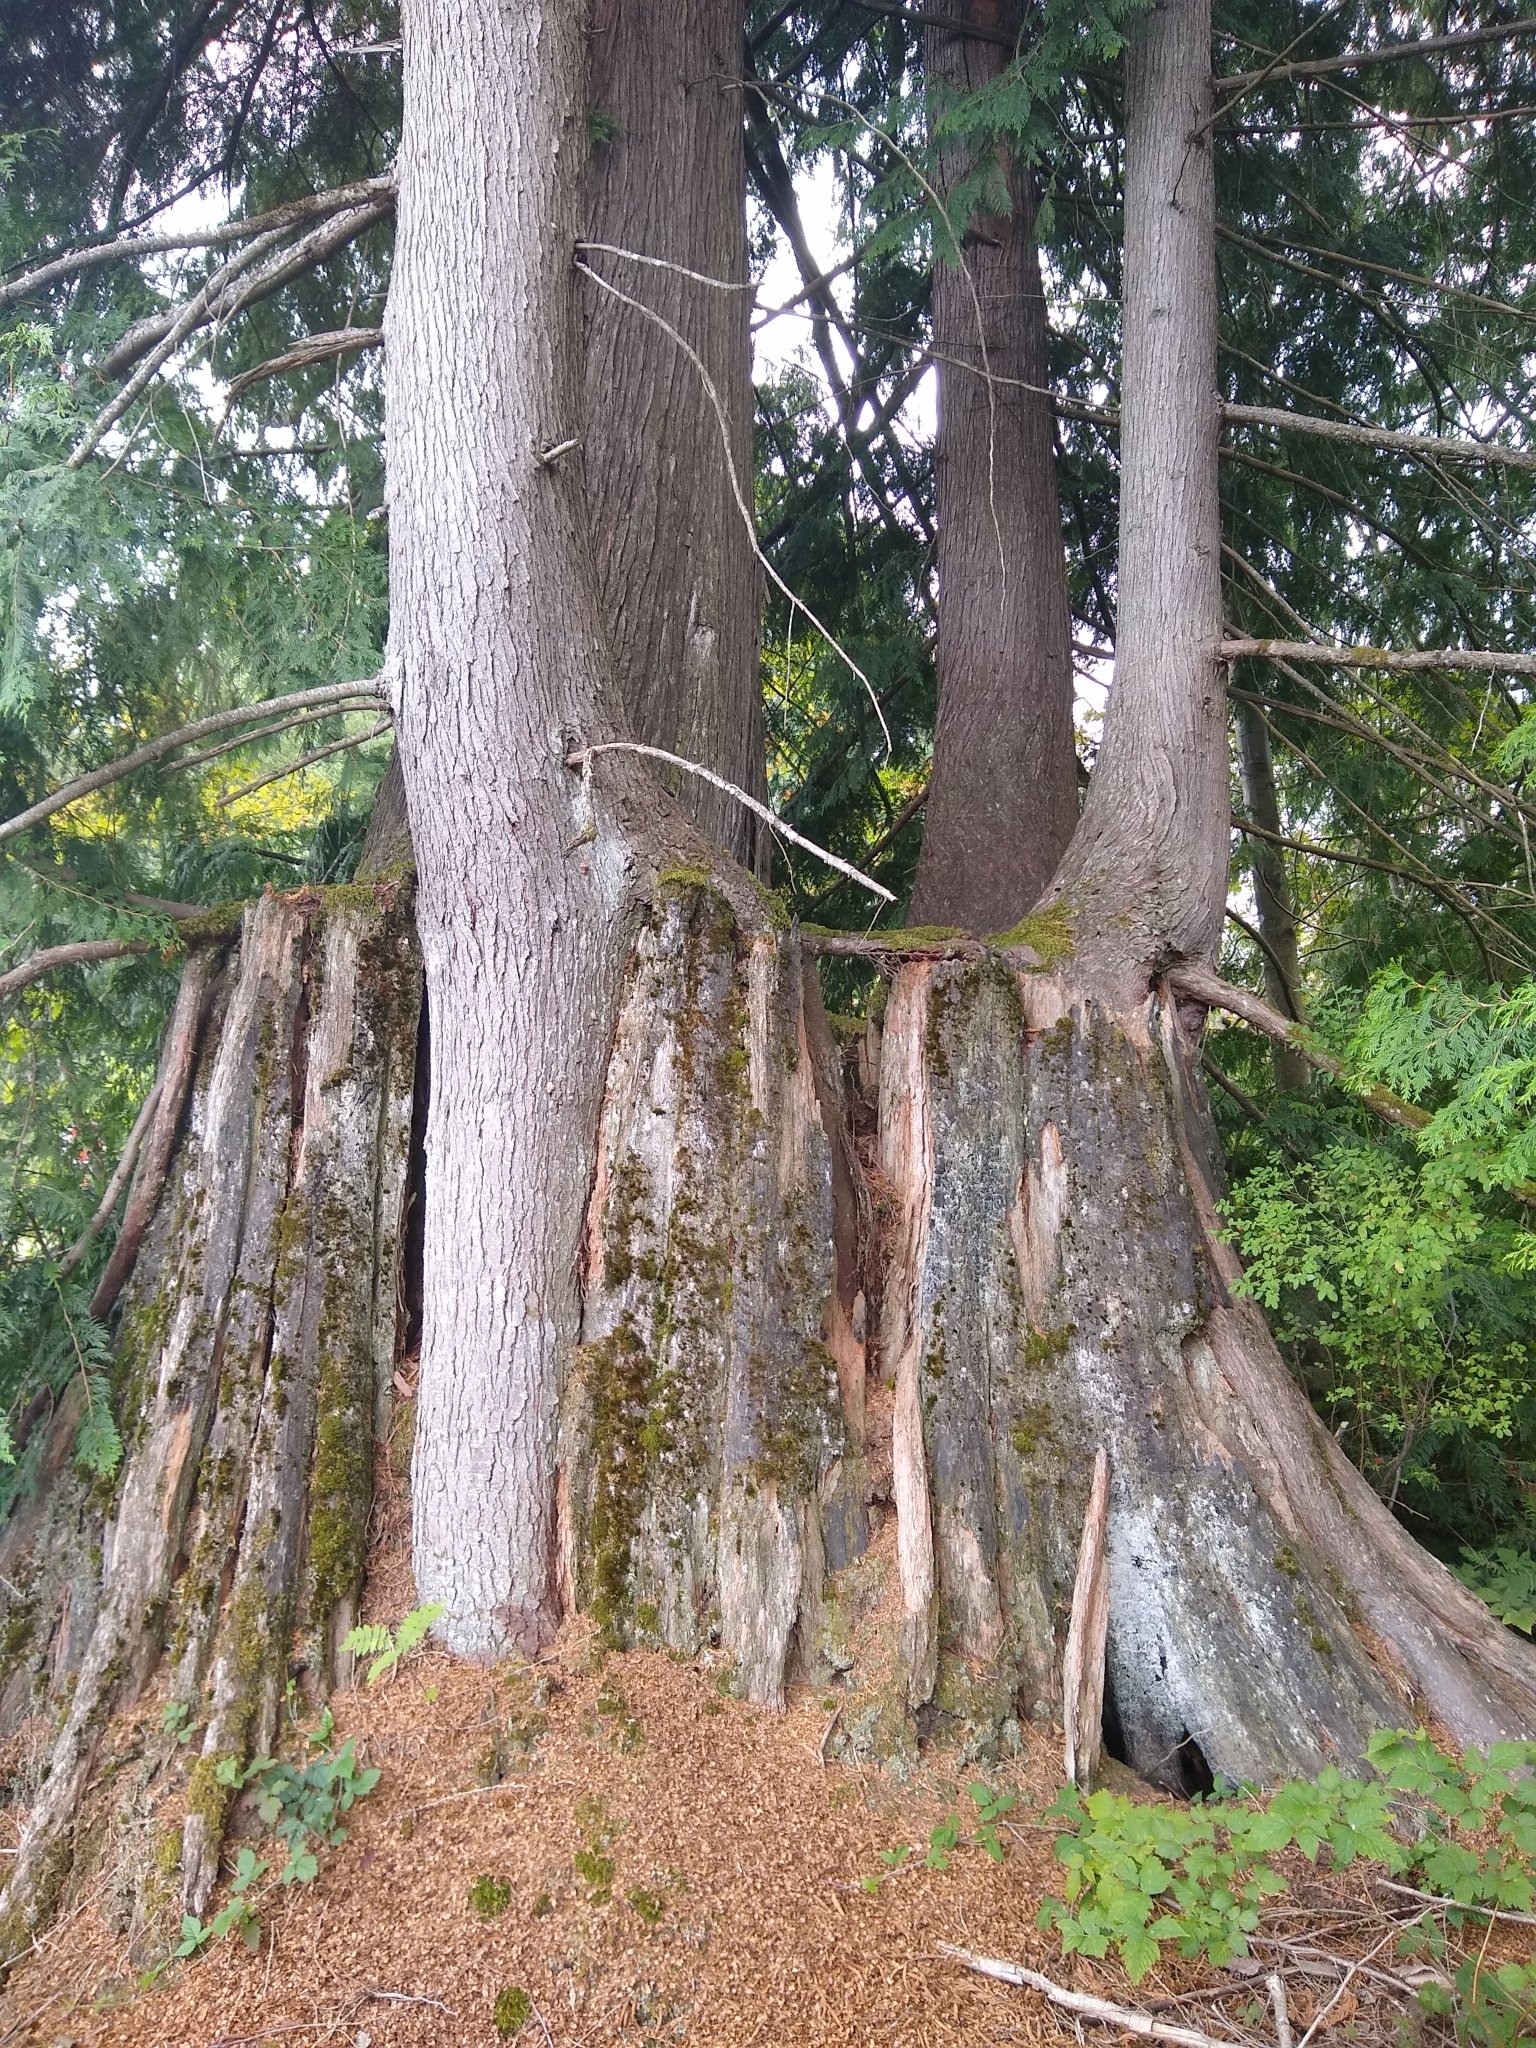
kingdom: Plantae
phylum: Tracheophyta
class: Pinopsida
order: Pinales
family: Cupressaceae
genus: Thuja
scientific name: Thuja plicata
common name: Western red-cedar
